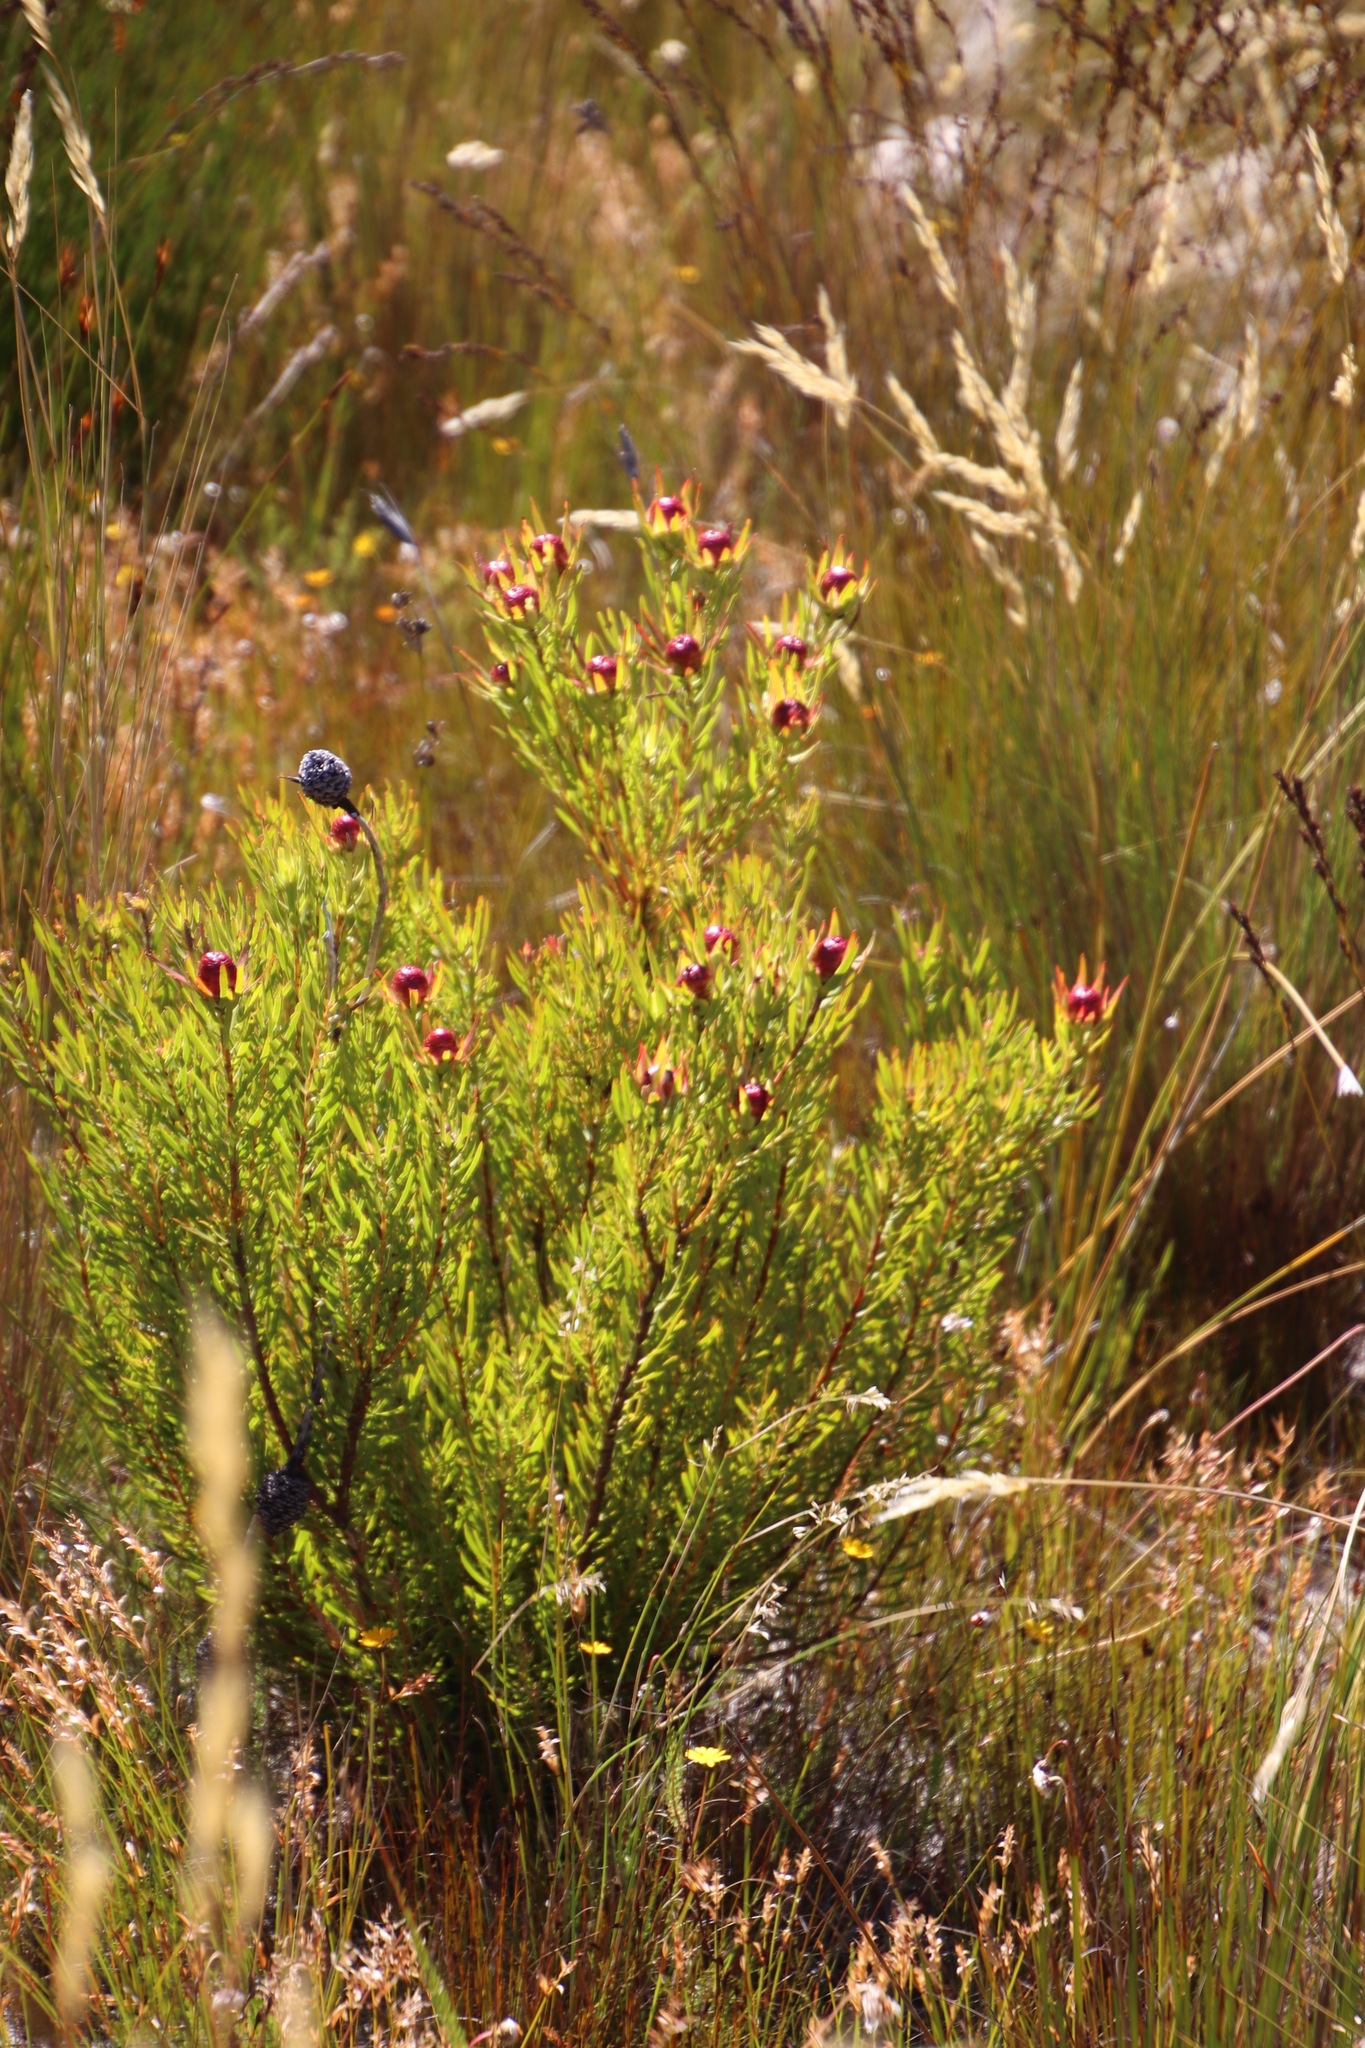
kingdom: Plantae
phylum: Tracheophyta
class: Magnoliopsida
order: Proteales
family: Proteaceae
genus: Leucadendron
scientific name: Leucadendron spissifolium
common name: Spear-leaf conebush
